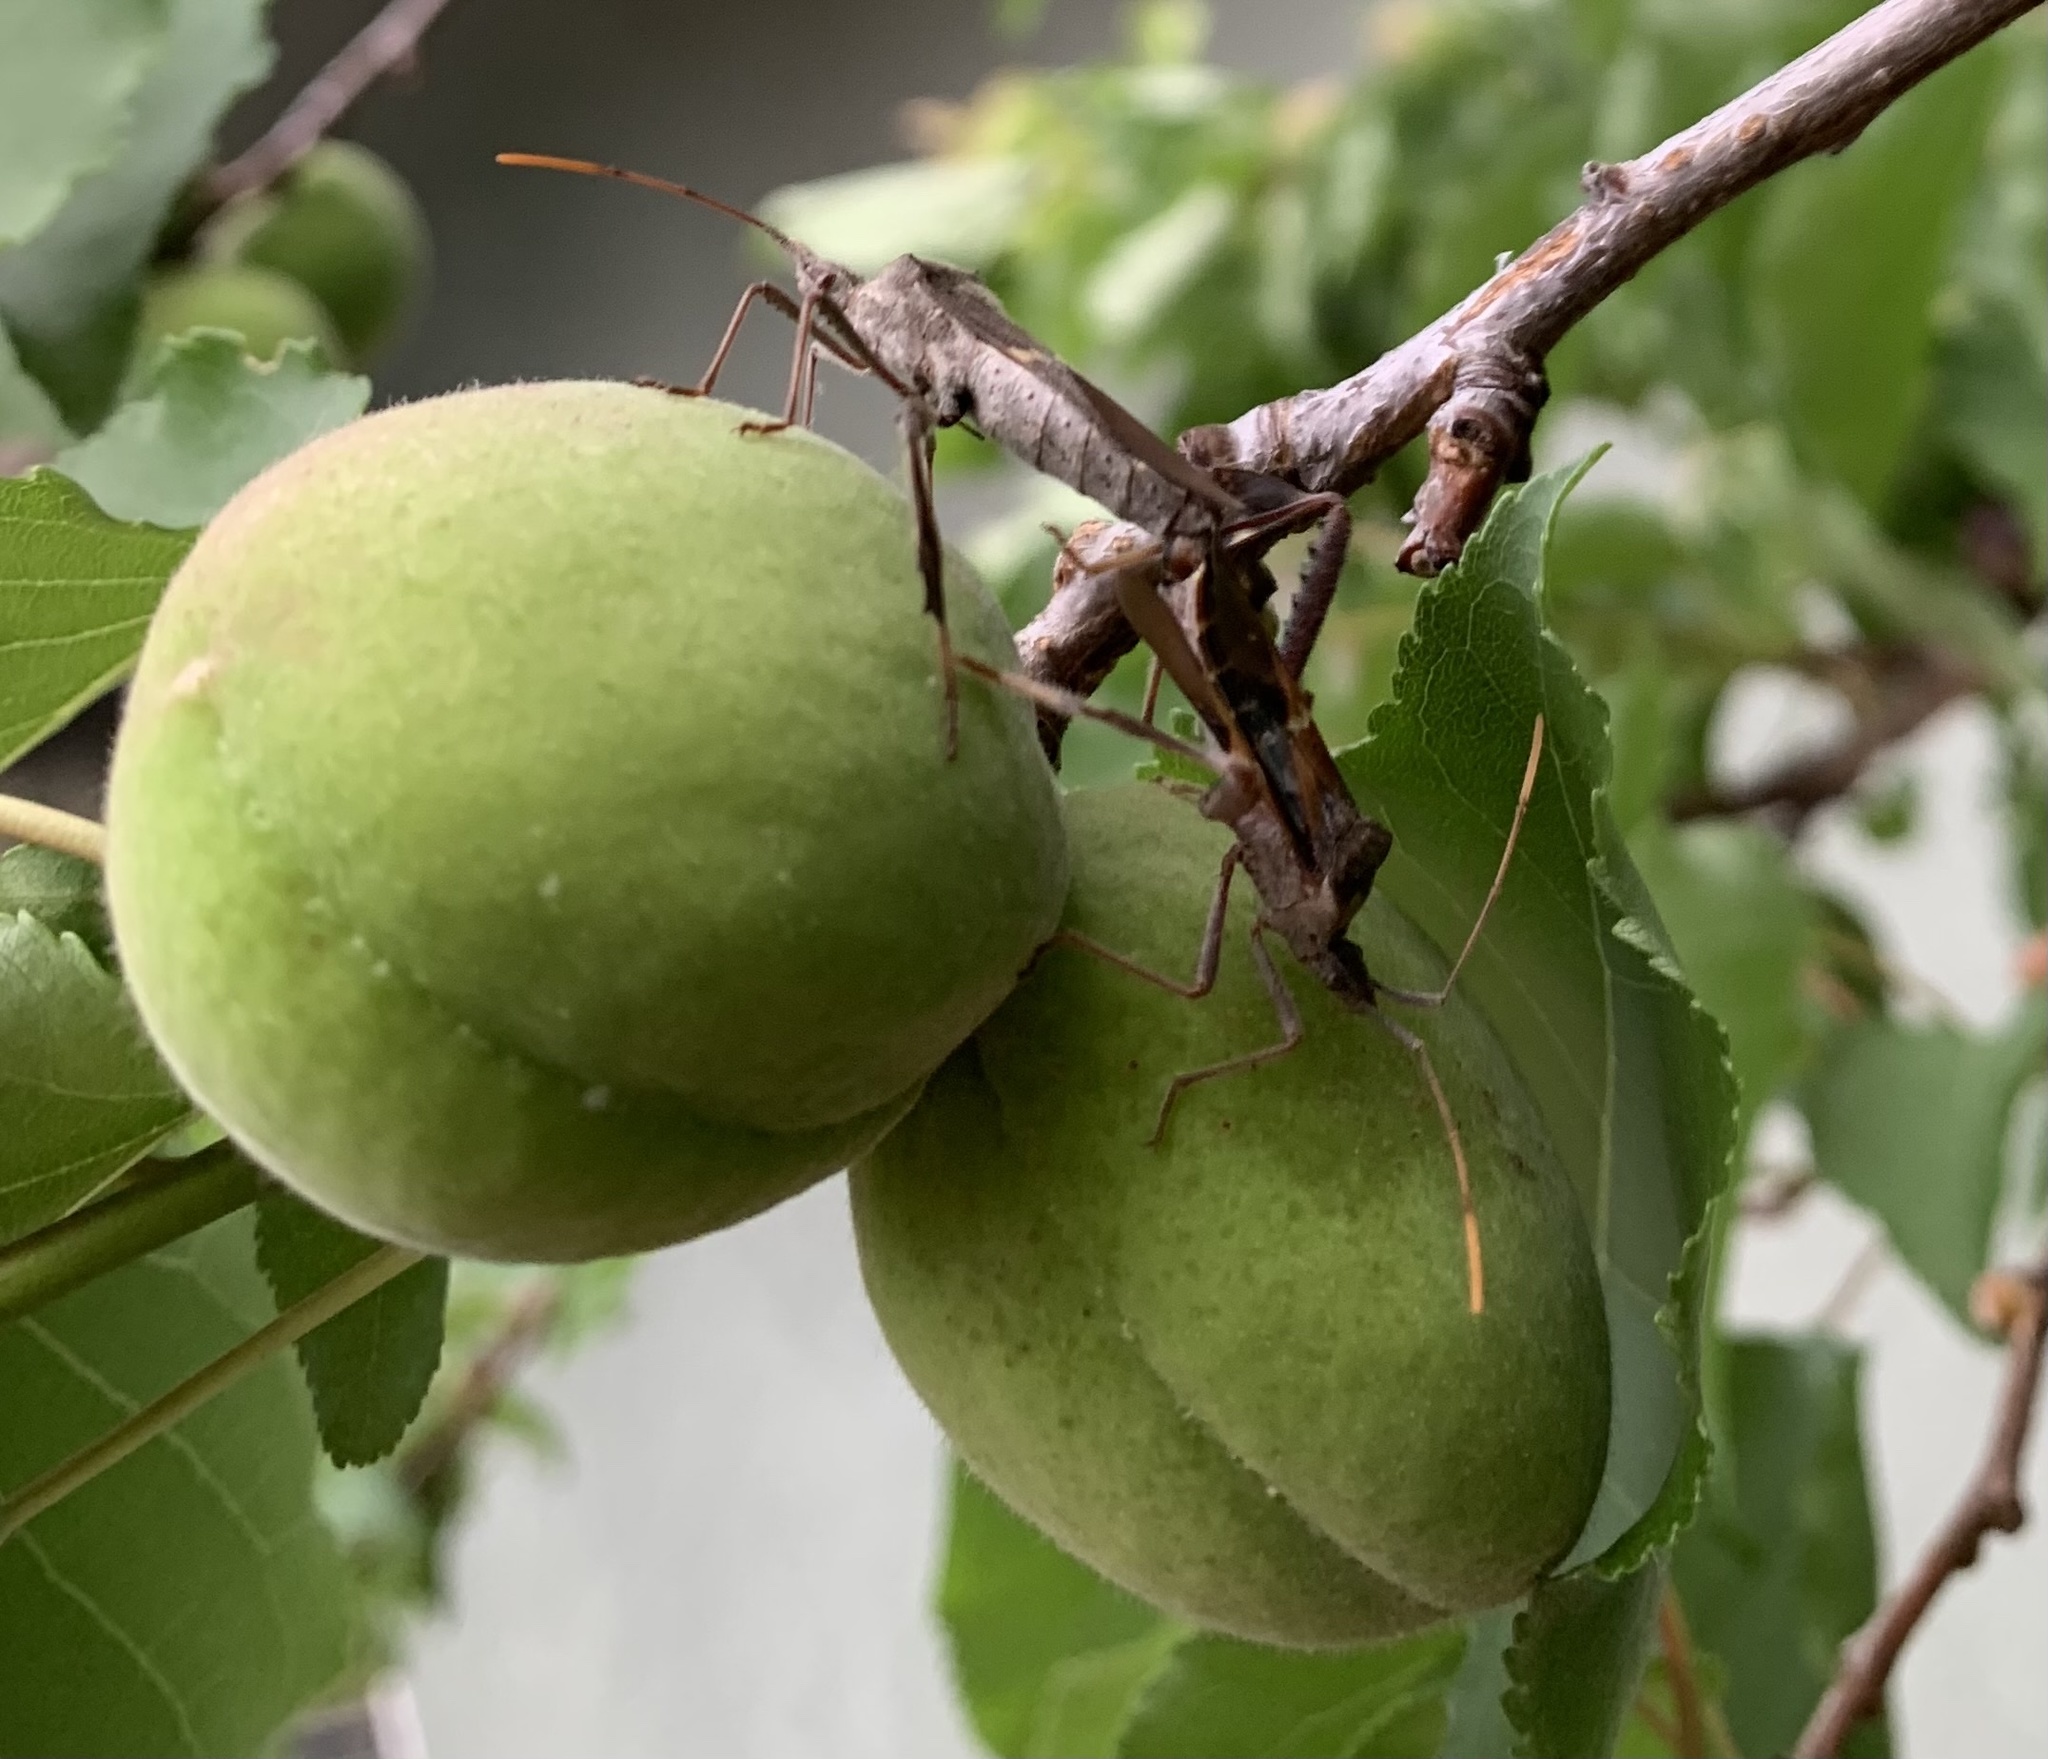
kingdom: Animalia
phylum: Arthropoda
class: Insecta
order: Hemiptera
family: Coreidae
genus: Leptoglossus
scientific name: Leptoglossus zonatus
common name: Large-legged bug
